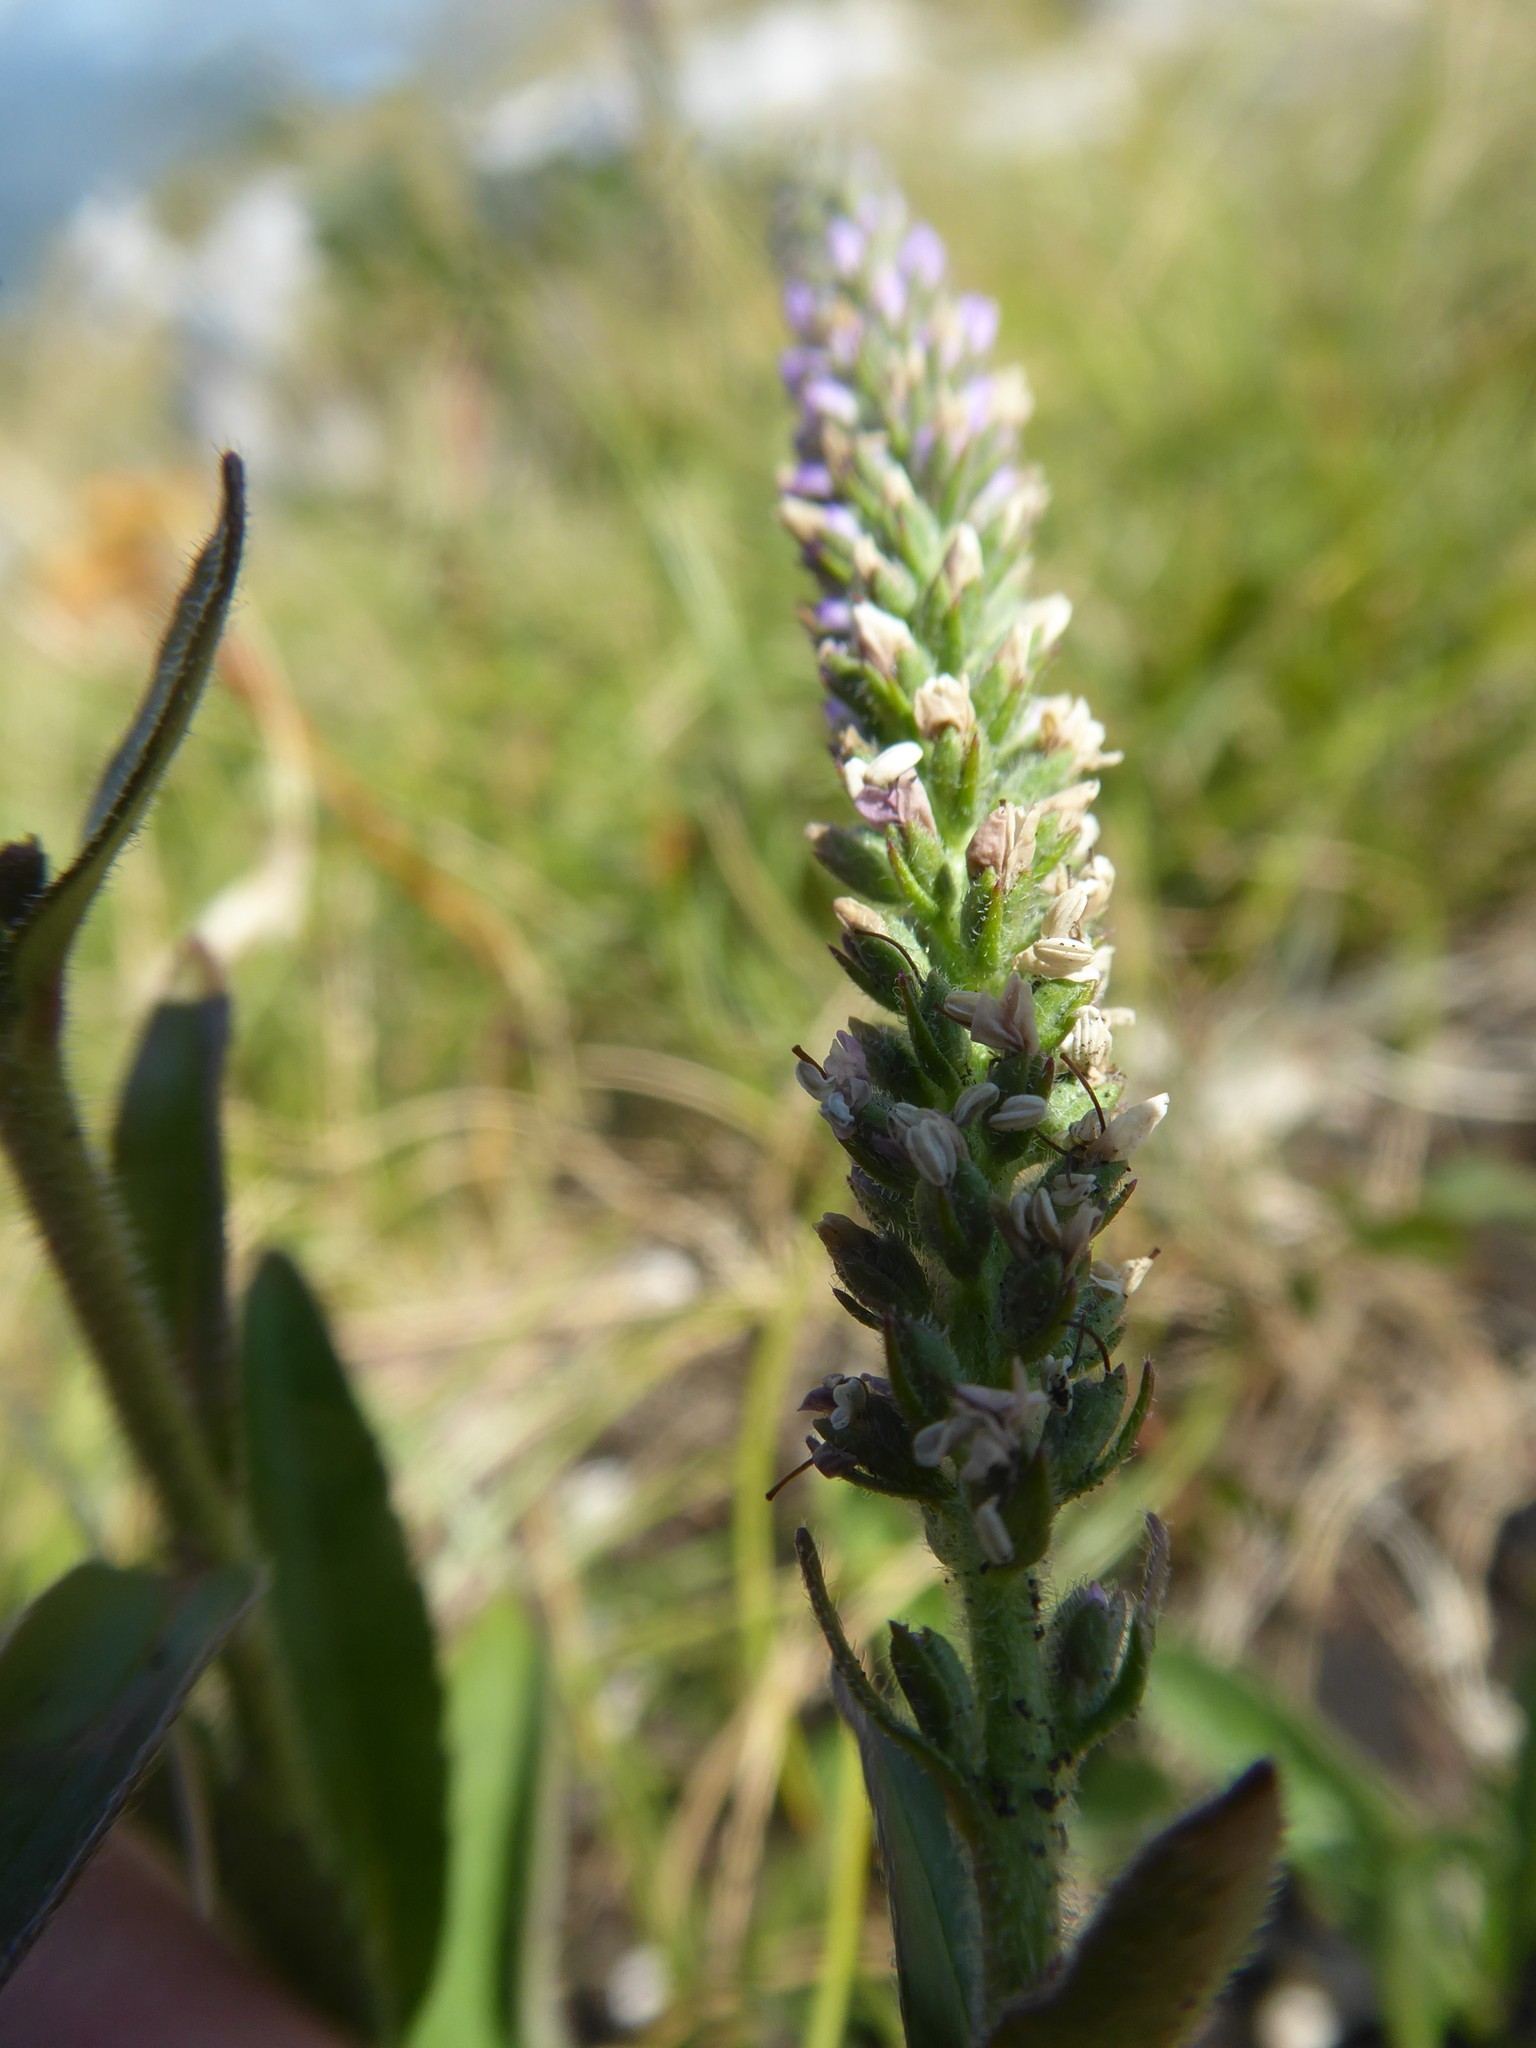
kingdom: Plantae
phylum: Tracheophyta
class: Magnoliopsida
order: Lamiales
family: Plantaginaceae
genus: Veronica
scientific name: Veronica barrelieri
